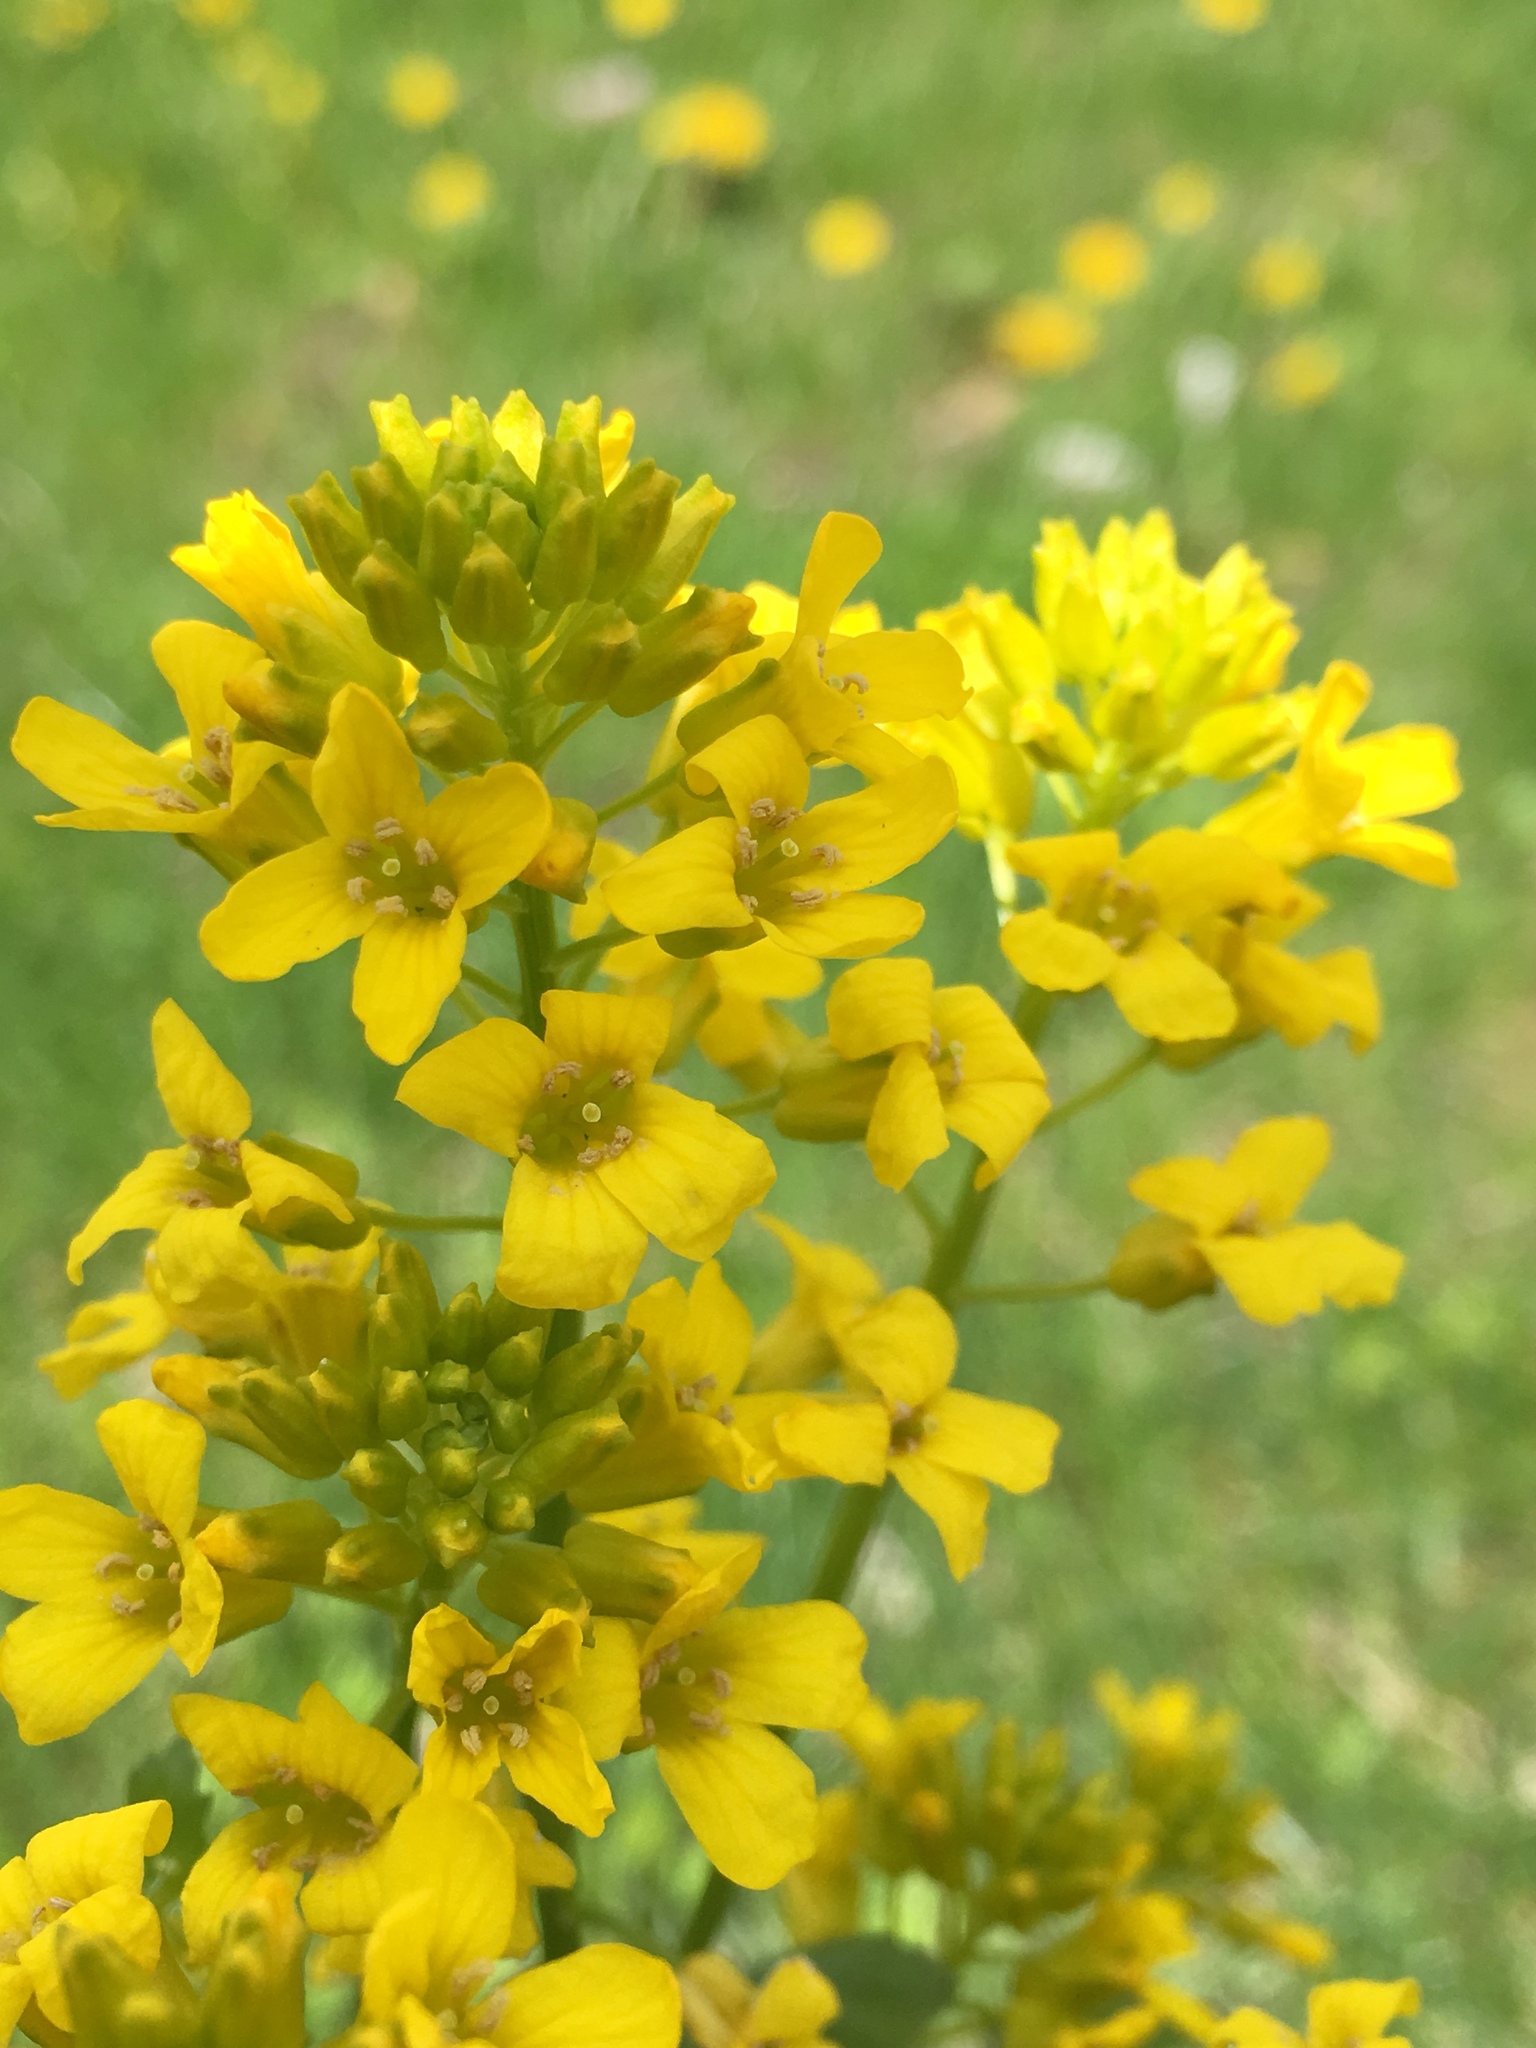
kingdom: Plantae
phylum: Tracheophyta
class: Magnoliopsida
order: Brassicales
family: Brassicaceae
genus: Barbarea
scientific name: Barbarea vulgaris
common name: Cressy-greens
